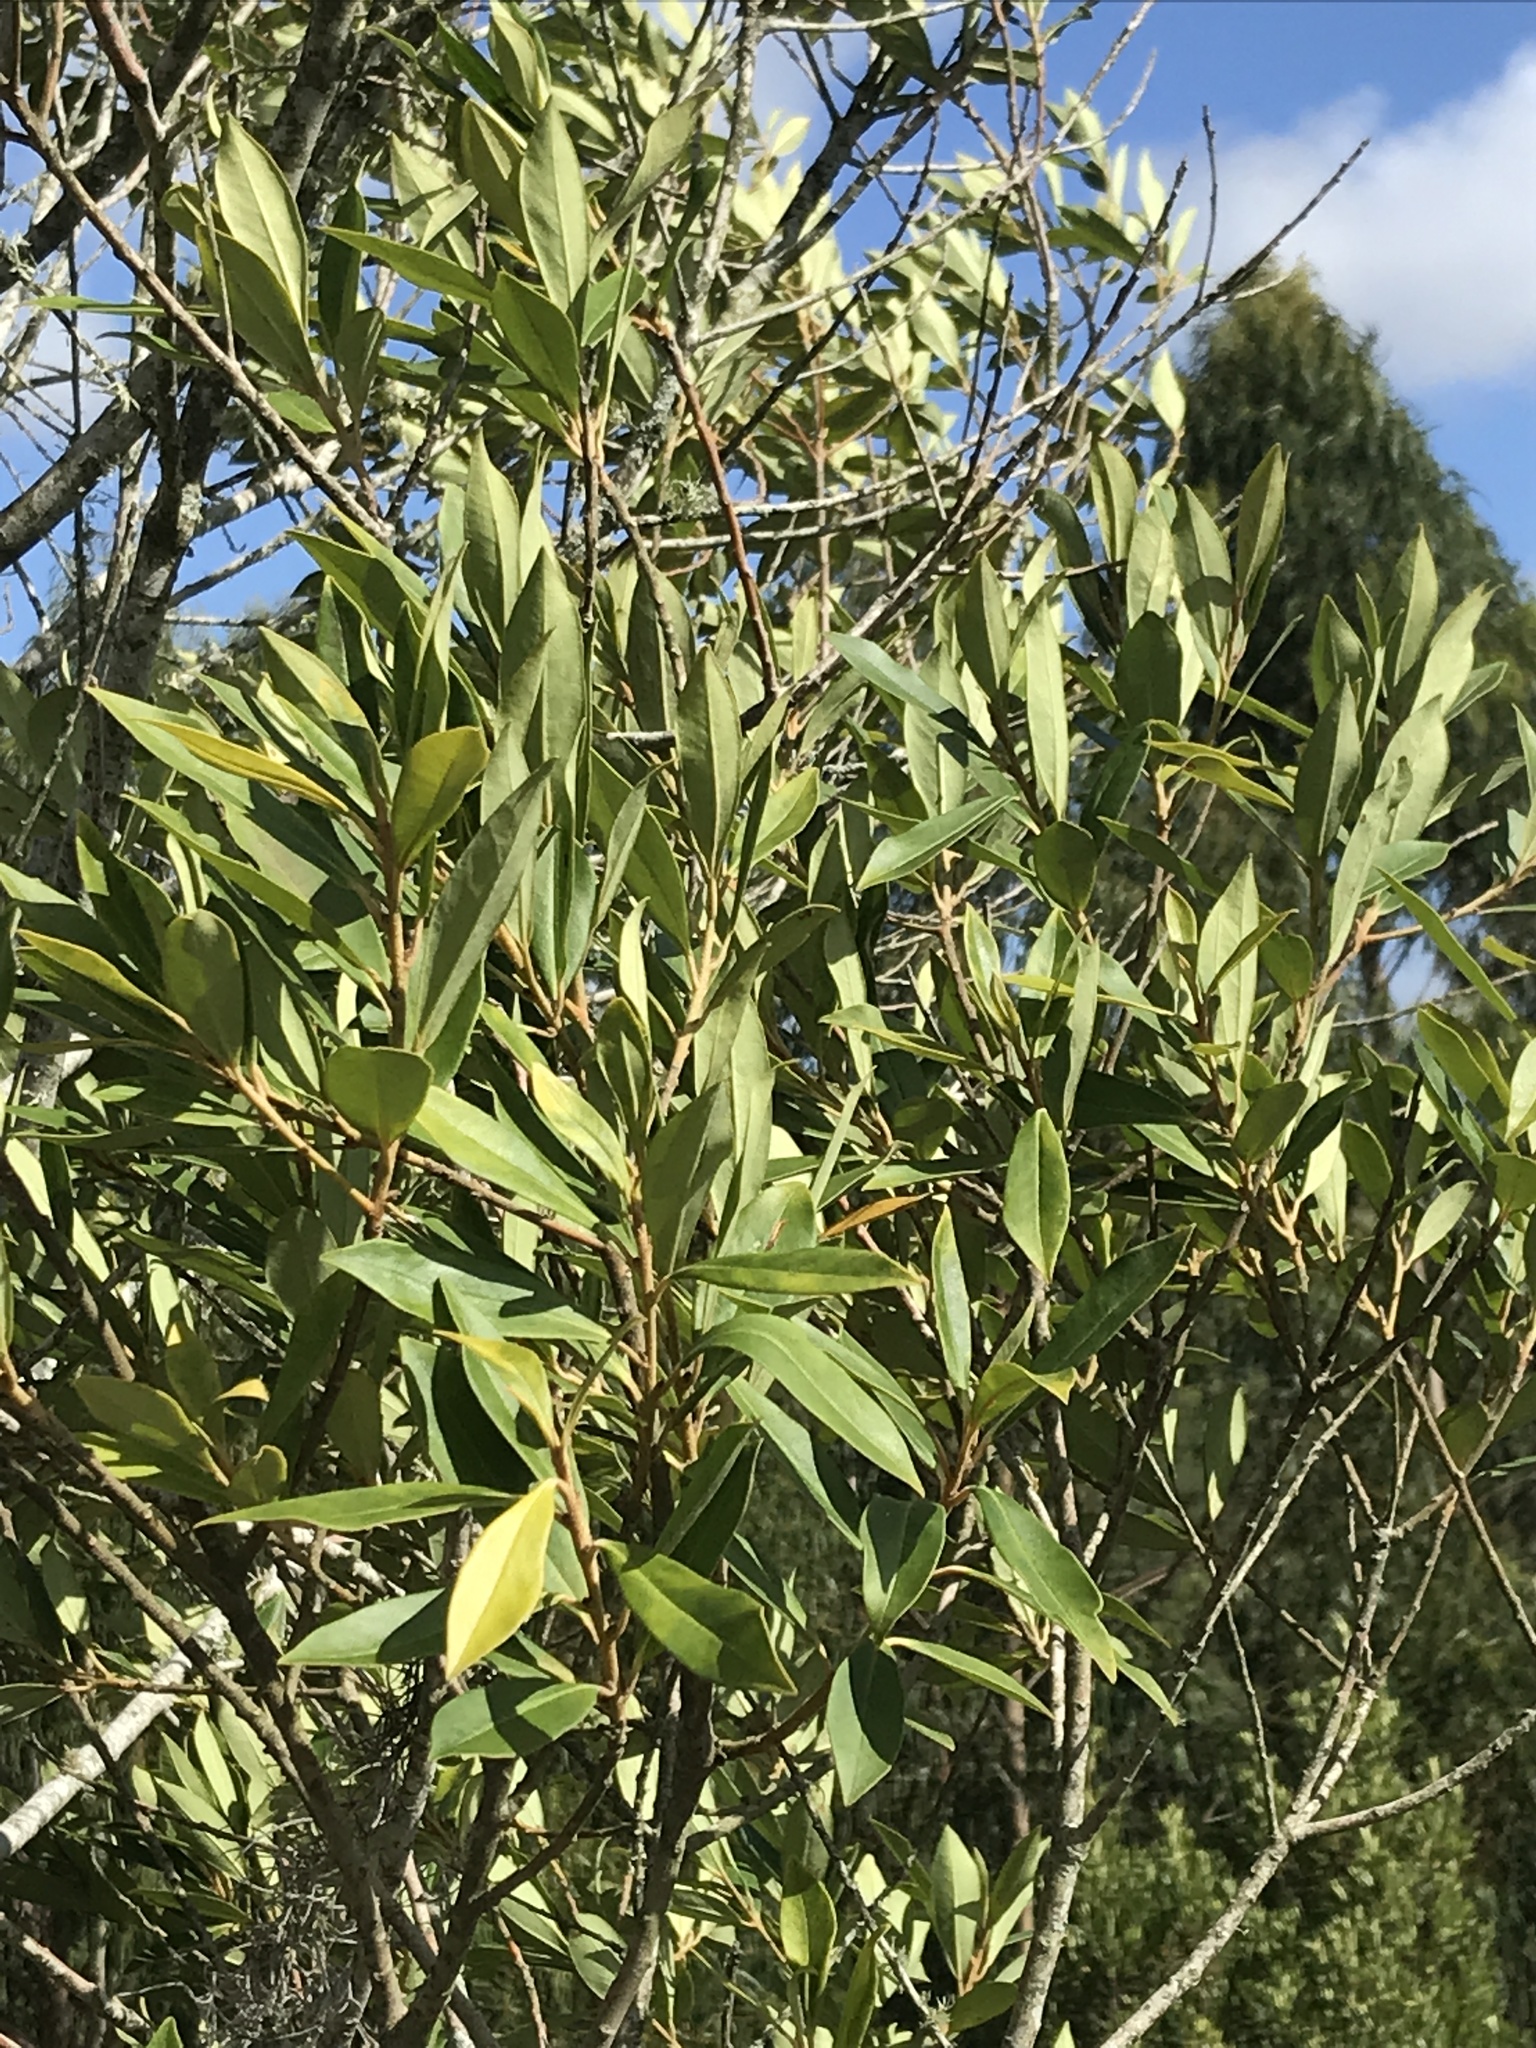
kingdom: Plantae
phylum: Tracheophyta
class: Magnoliopsida
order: Ericales
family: Primulaceae
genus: Myrsine
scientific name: Myrsine coriacea
